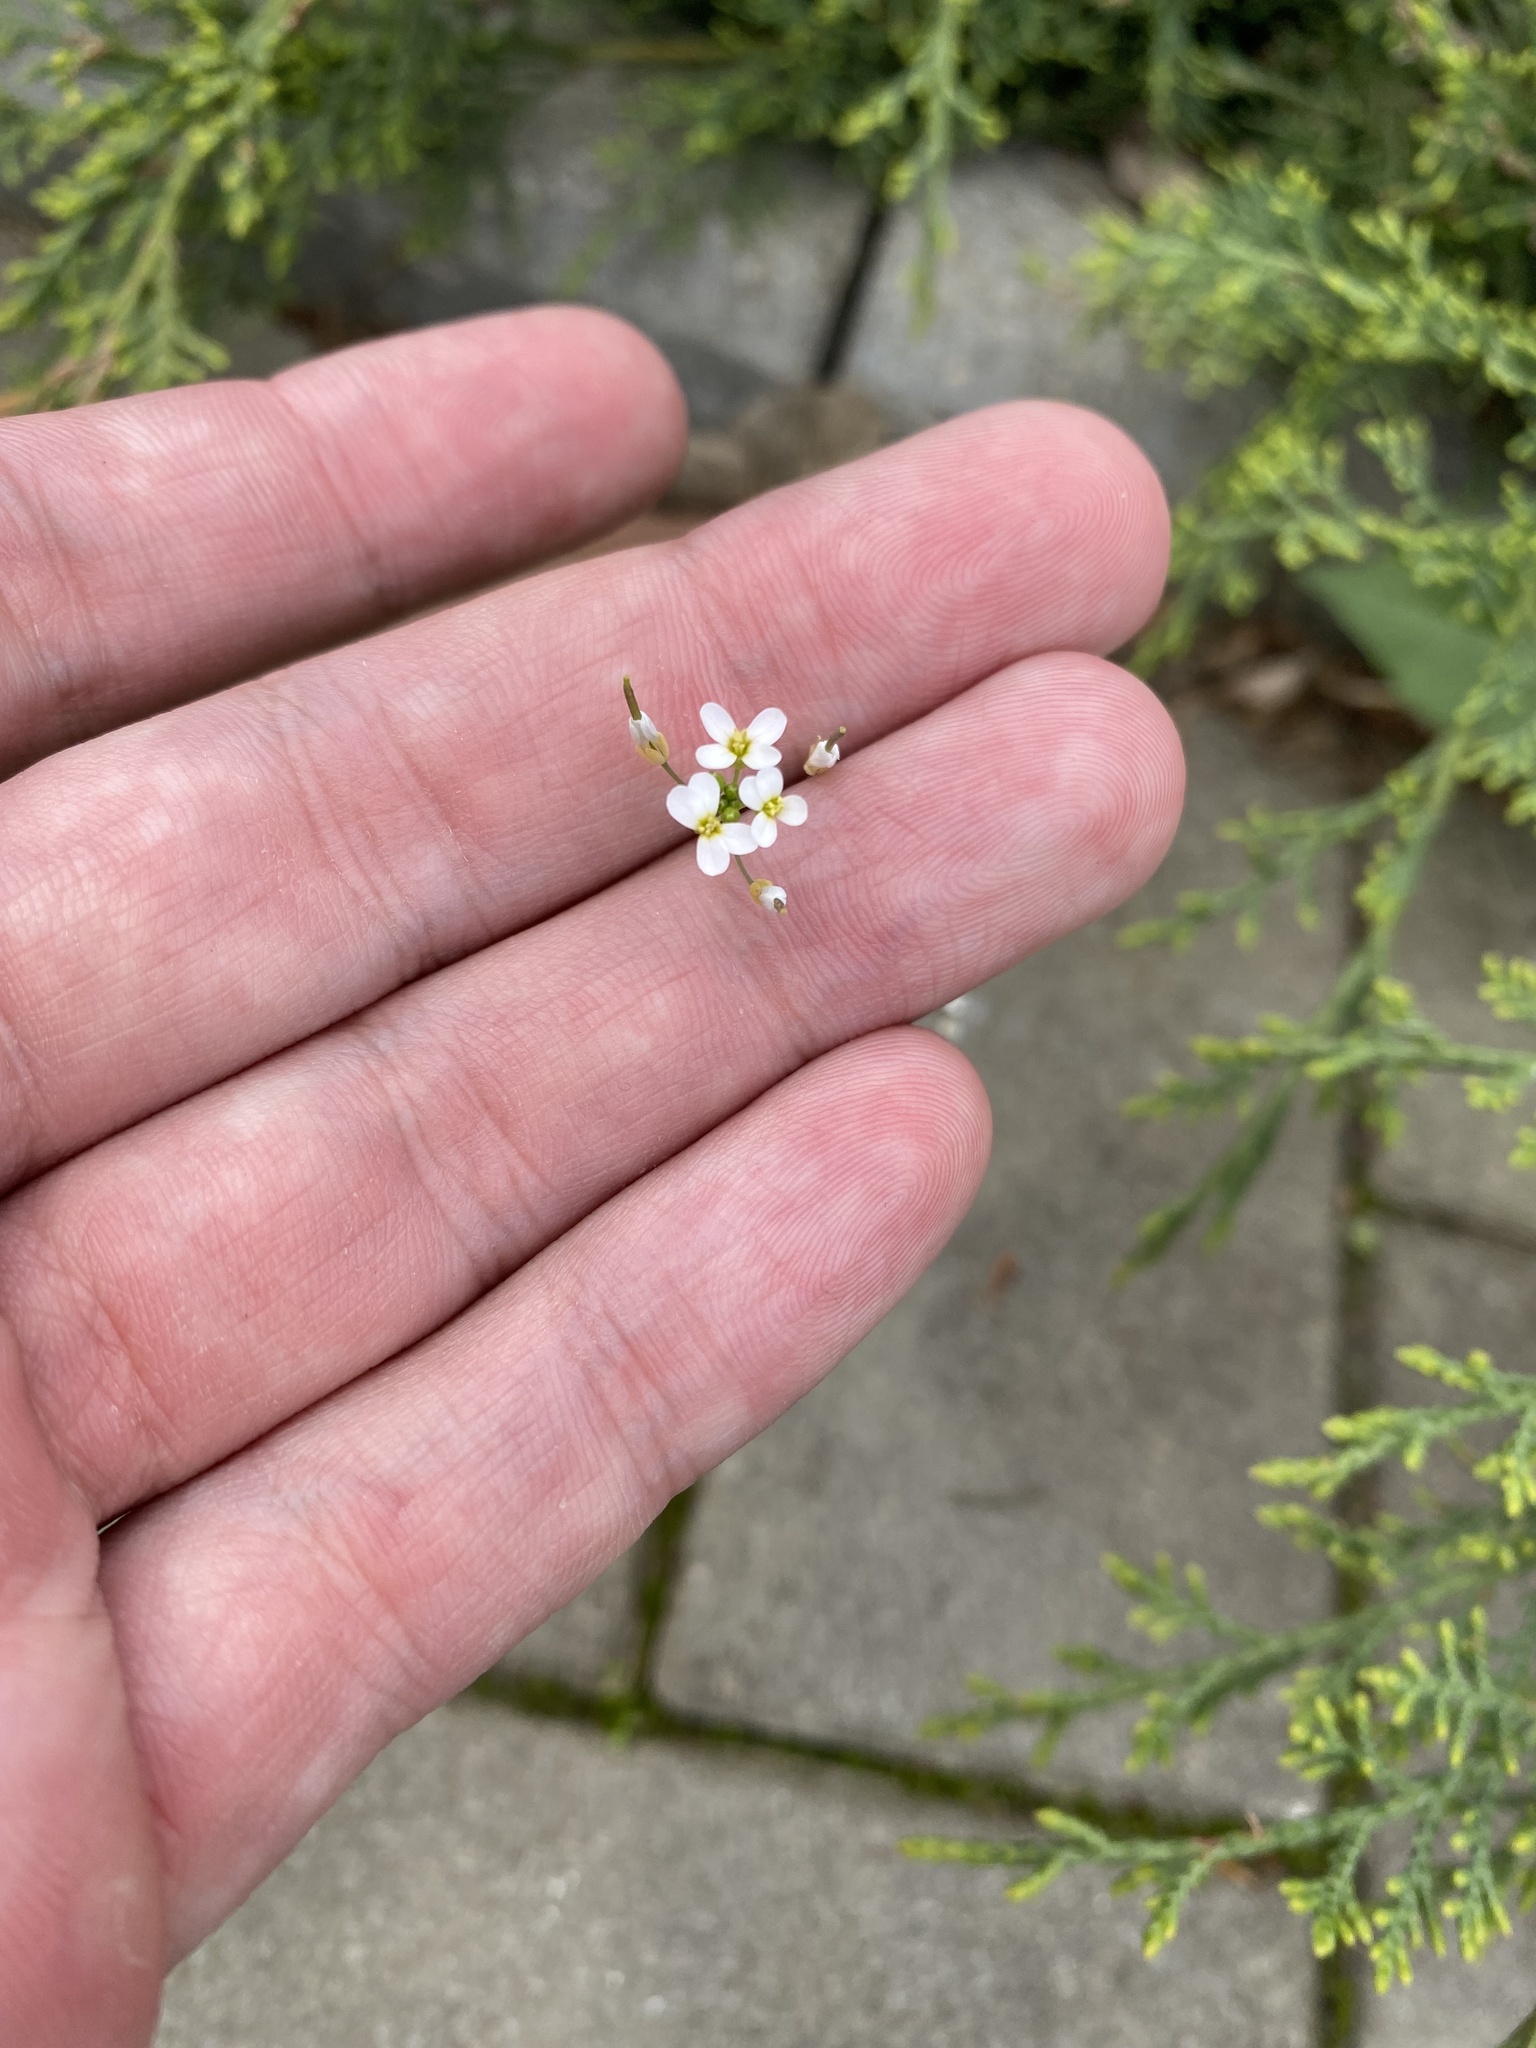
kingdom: Plantae
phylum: Tracheophyta
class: Magnoliopsida
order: Brassicales
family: Brassicaceae
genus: Arabidopsis
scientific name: Arabidopsis thaliana
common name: Thale cress
